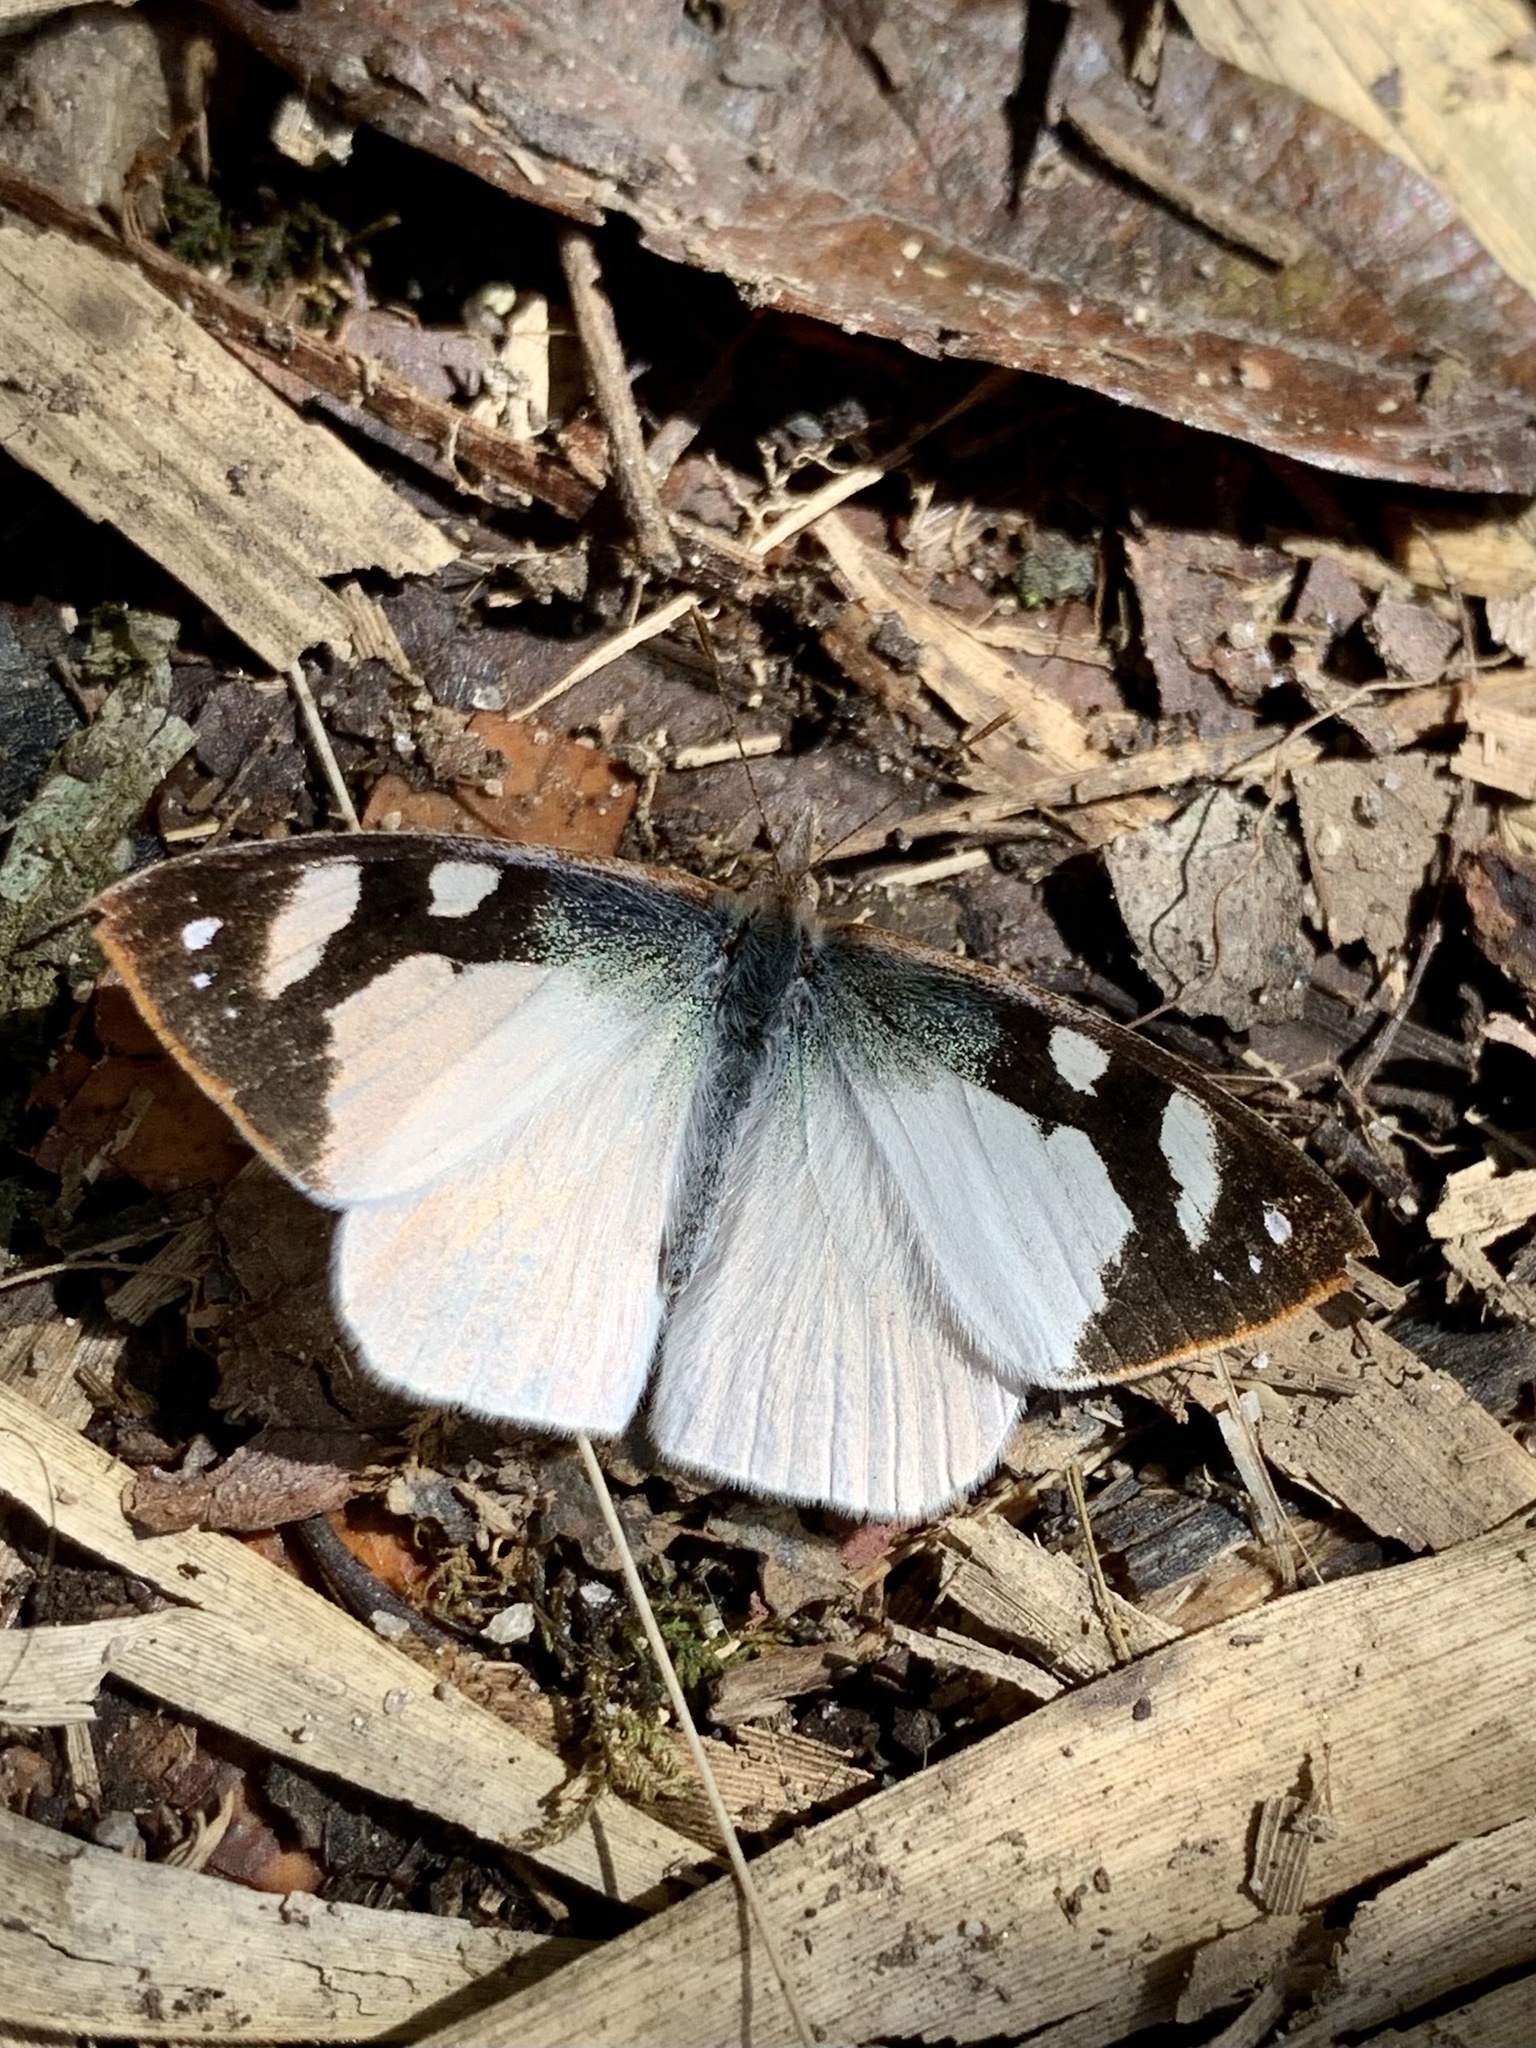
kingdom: Animalia
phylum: Arthropoda
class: Insecta
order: Lepidoptera
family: Nymphalidae
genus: Lymanopoda
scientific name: Lymanopoda eubagioides
